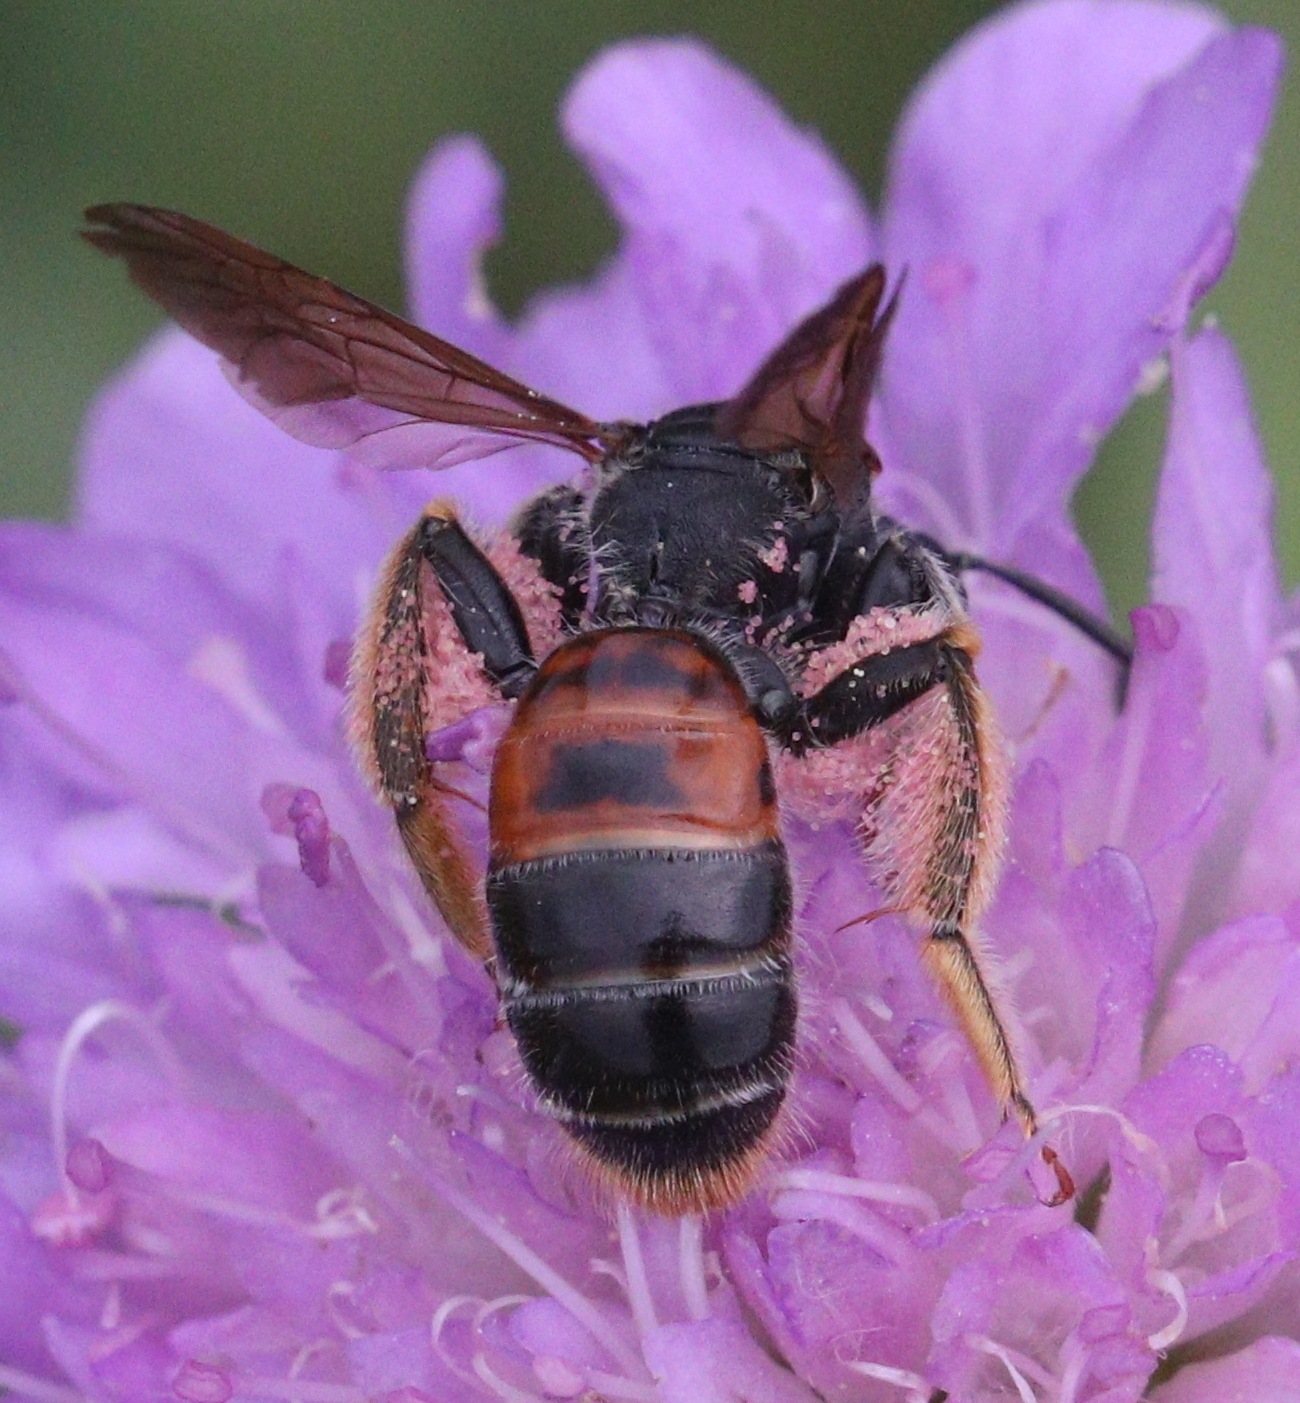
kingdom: Animalia
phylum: Arthropoda
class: Insecta
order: Hymenoptera
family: Andrenidae
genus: Andrena
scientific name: Andrena hattorfiana
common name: Large scabious mining bee
